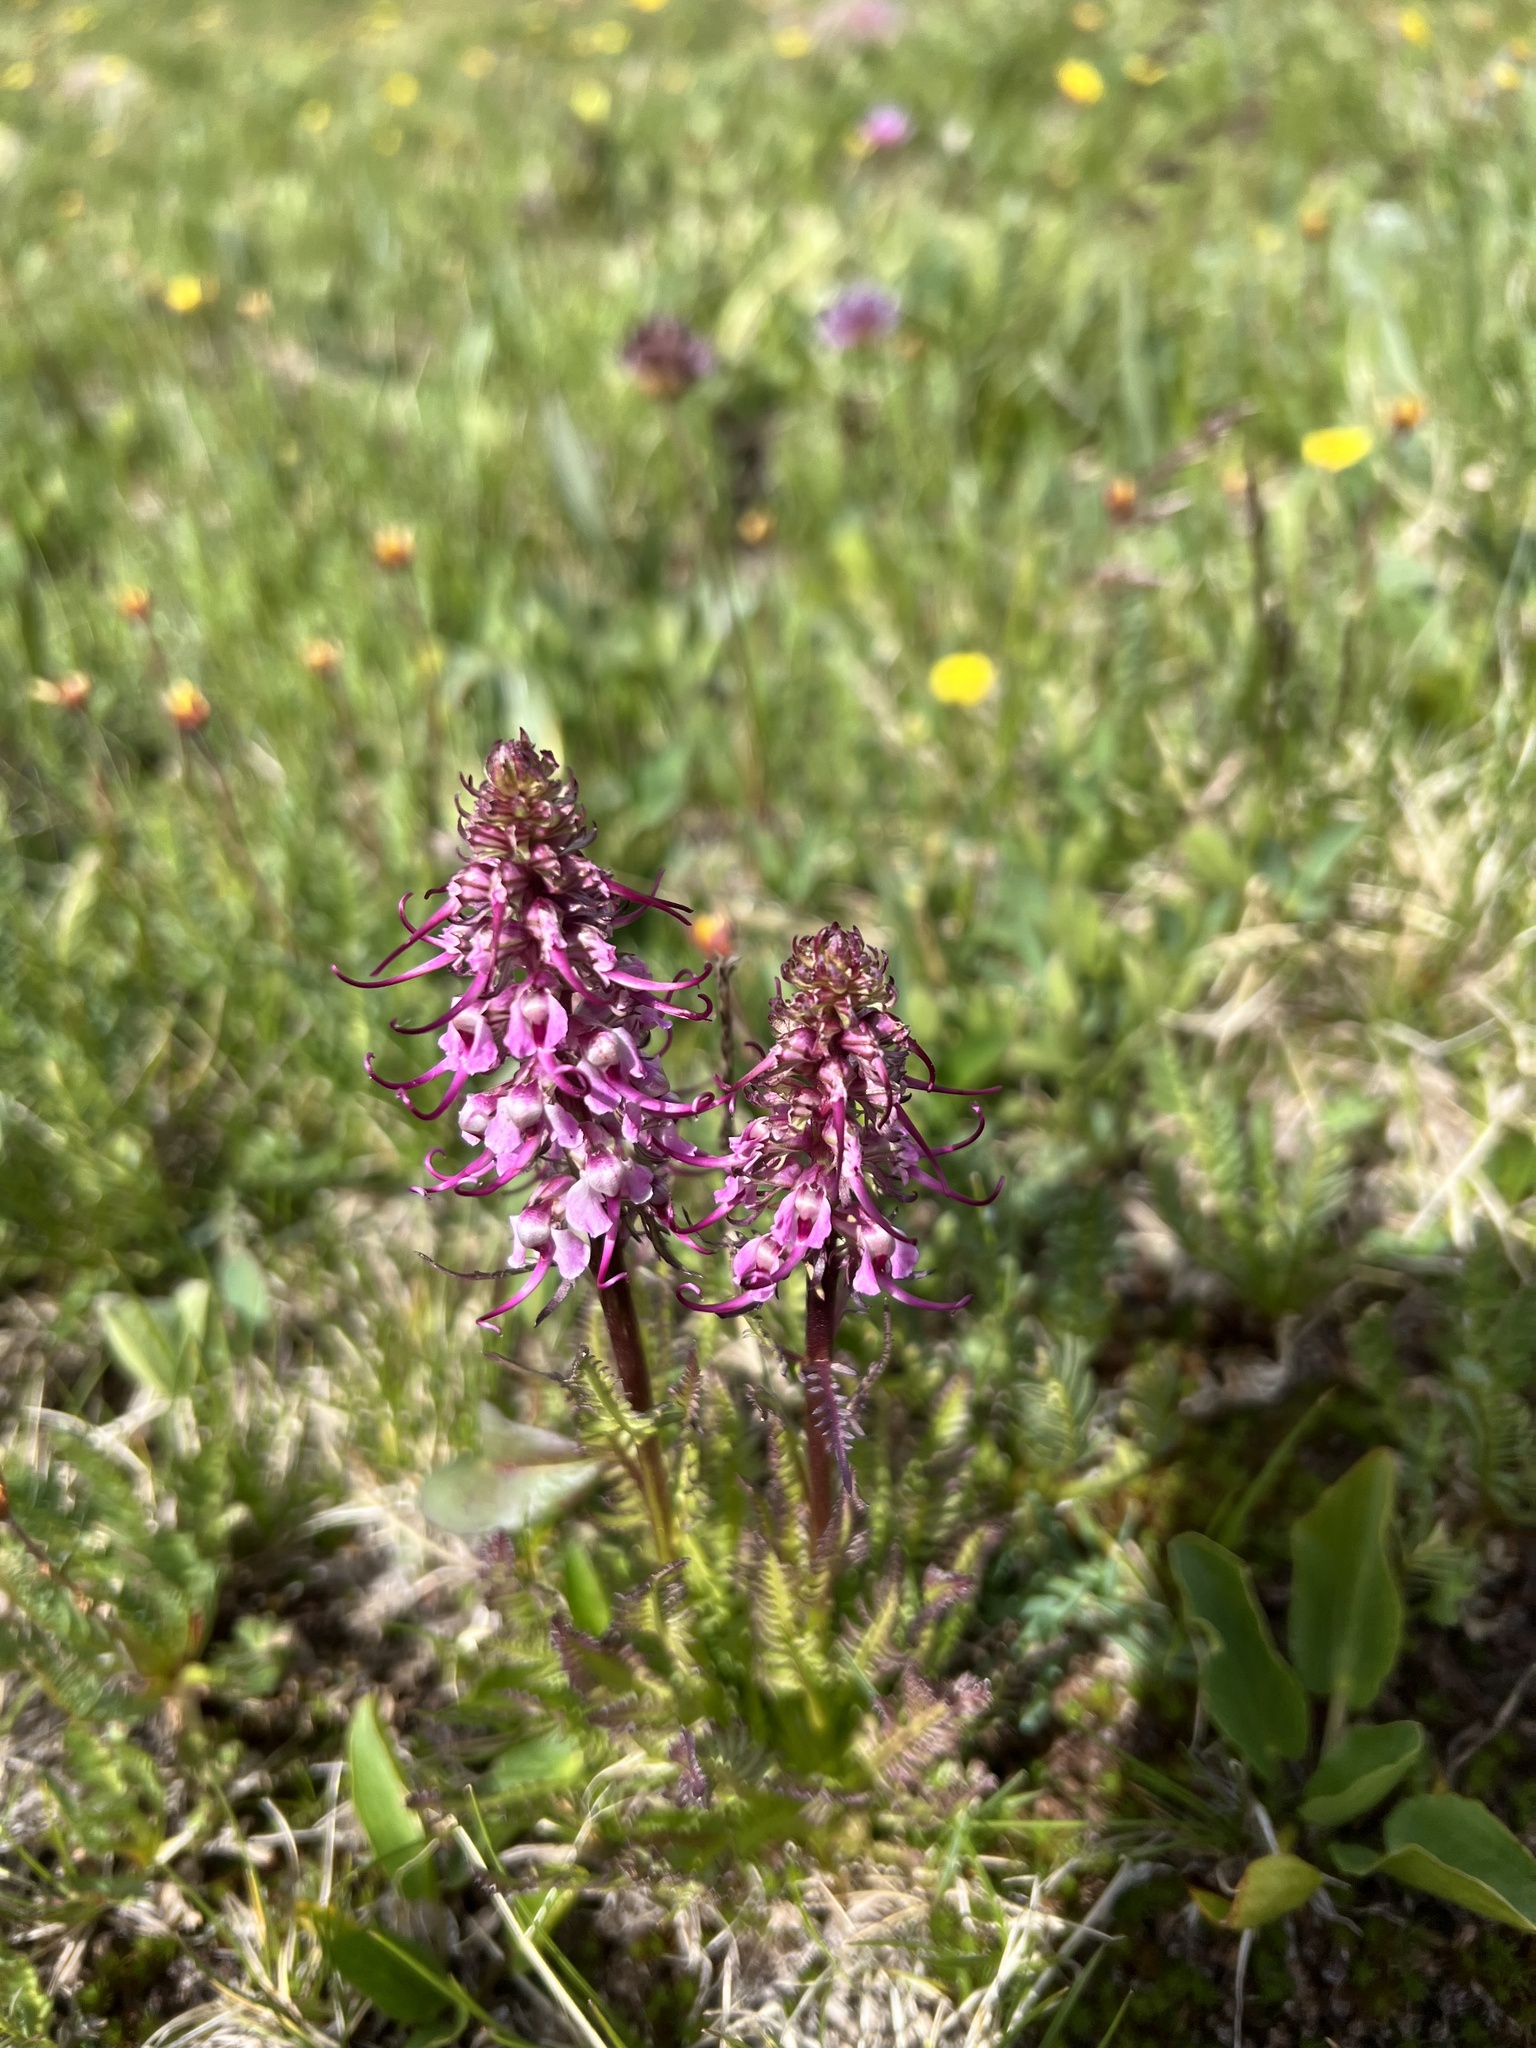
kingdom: Plantae
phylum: Tracheophyta
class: Magnoliopsida
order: Lamiales
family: Orobanchaceae
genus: Pedicularis
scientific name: Pedicularis groenlandica
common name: Elephant's-head
